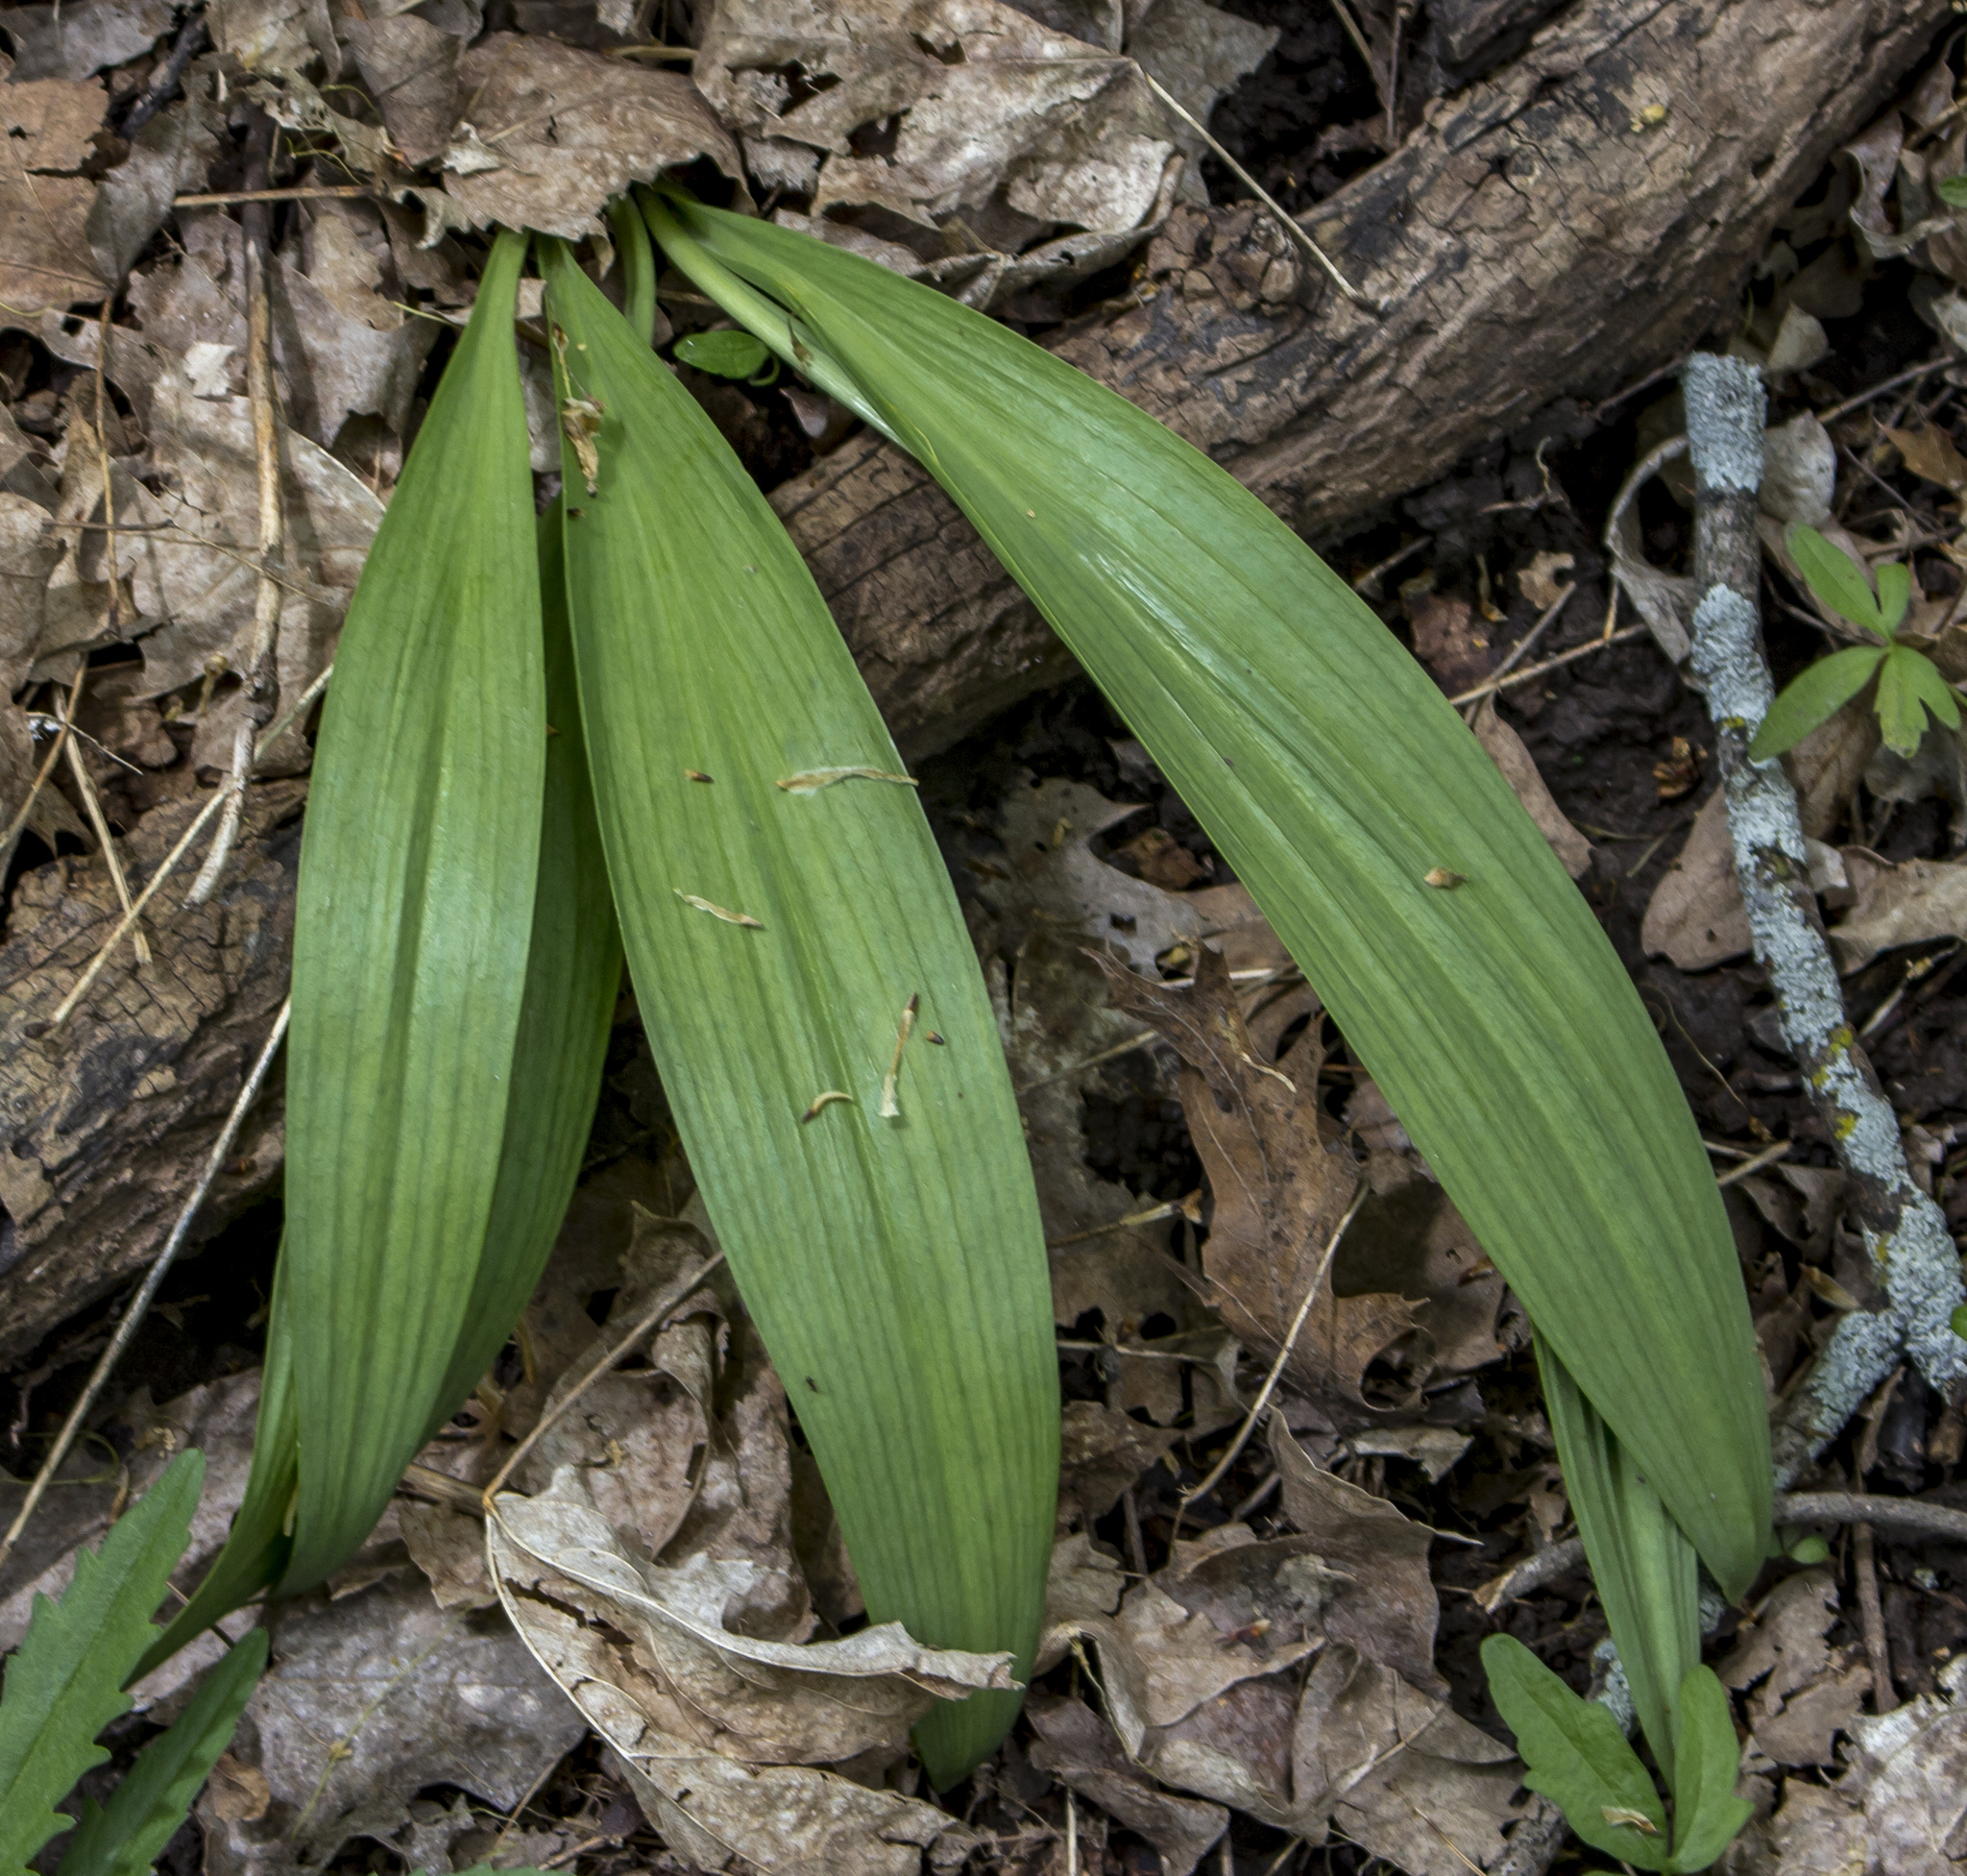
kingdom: Plantae
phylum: Tracheophyta
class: Liliopsida
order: Asparagales
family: Amaryllidaceae
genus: Allium
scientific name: Allium tricoccum
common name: Ramp
